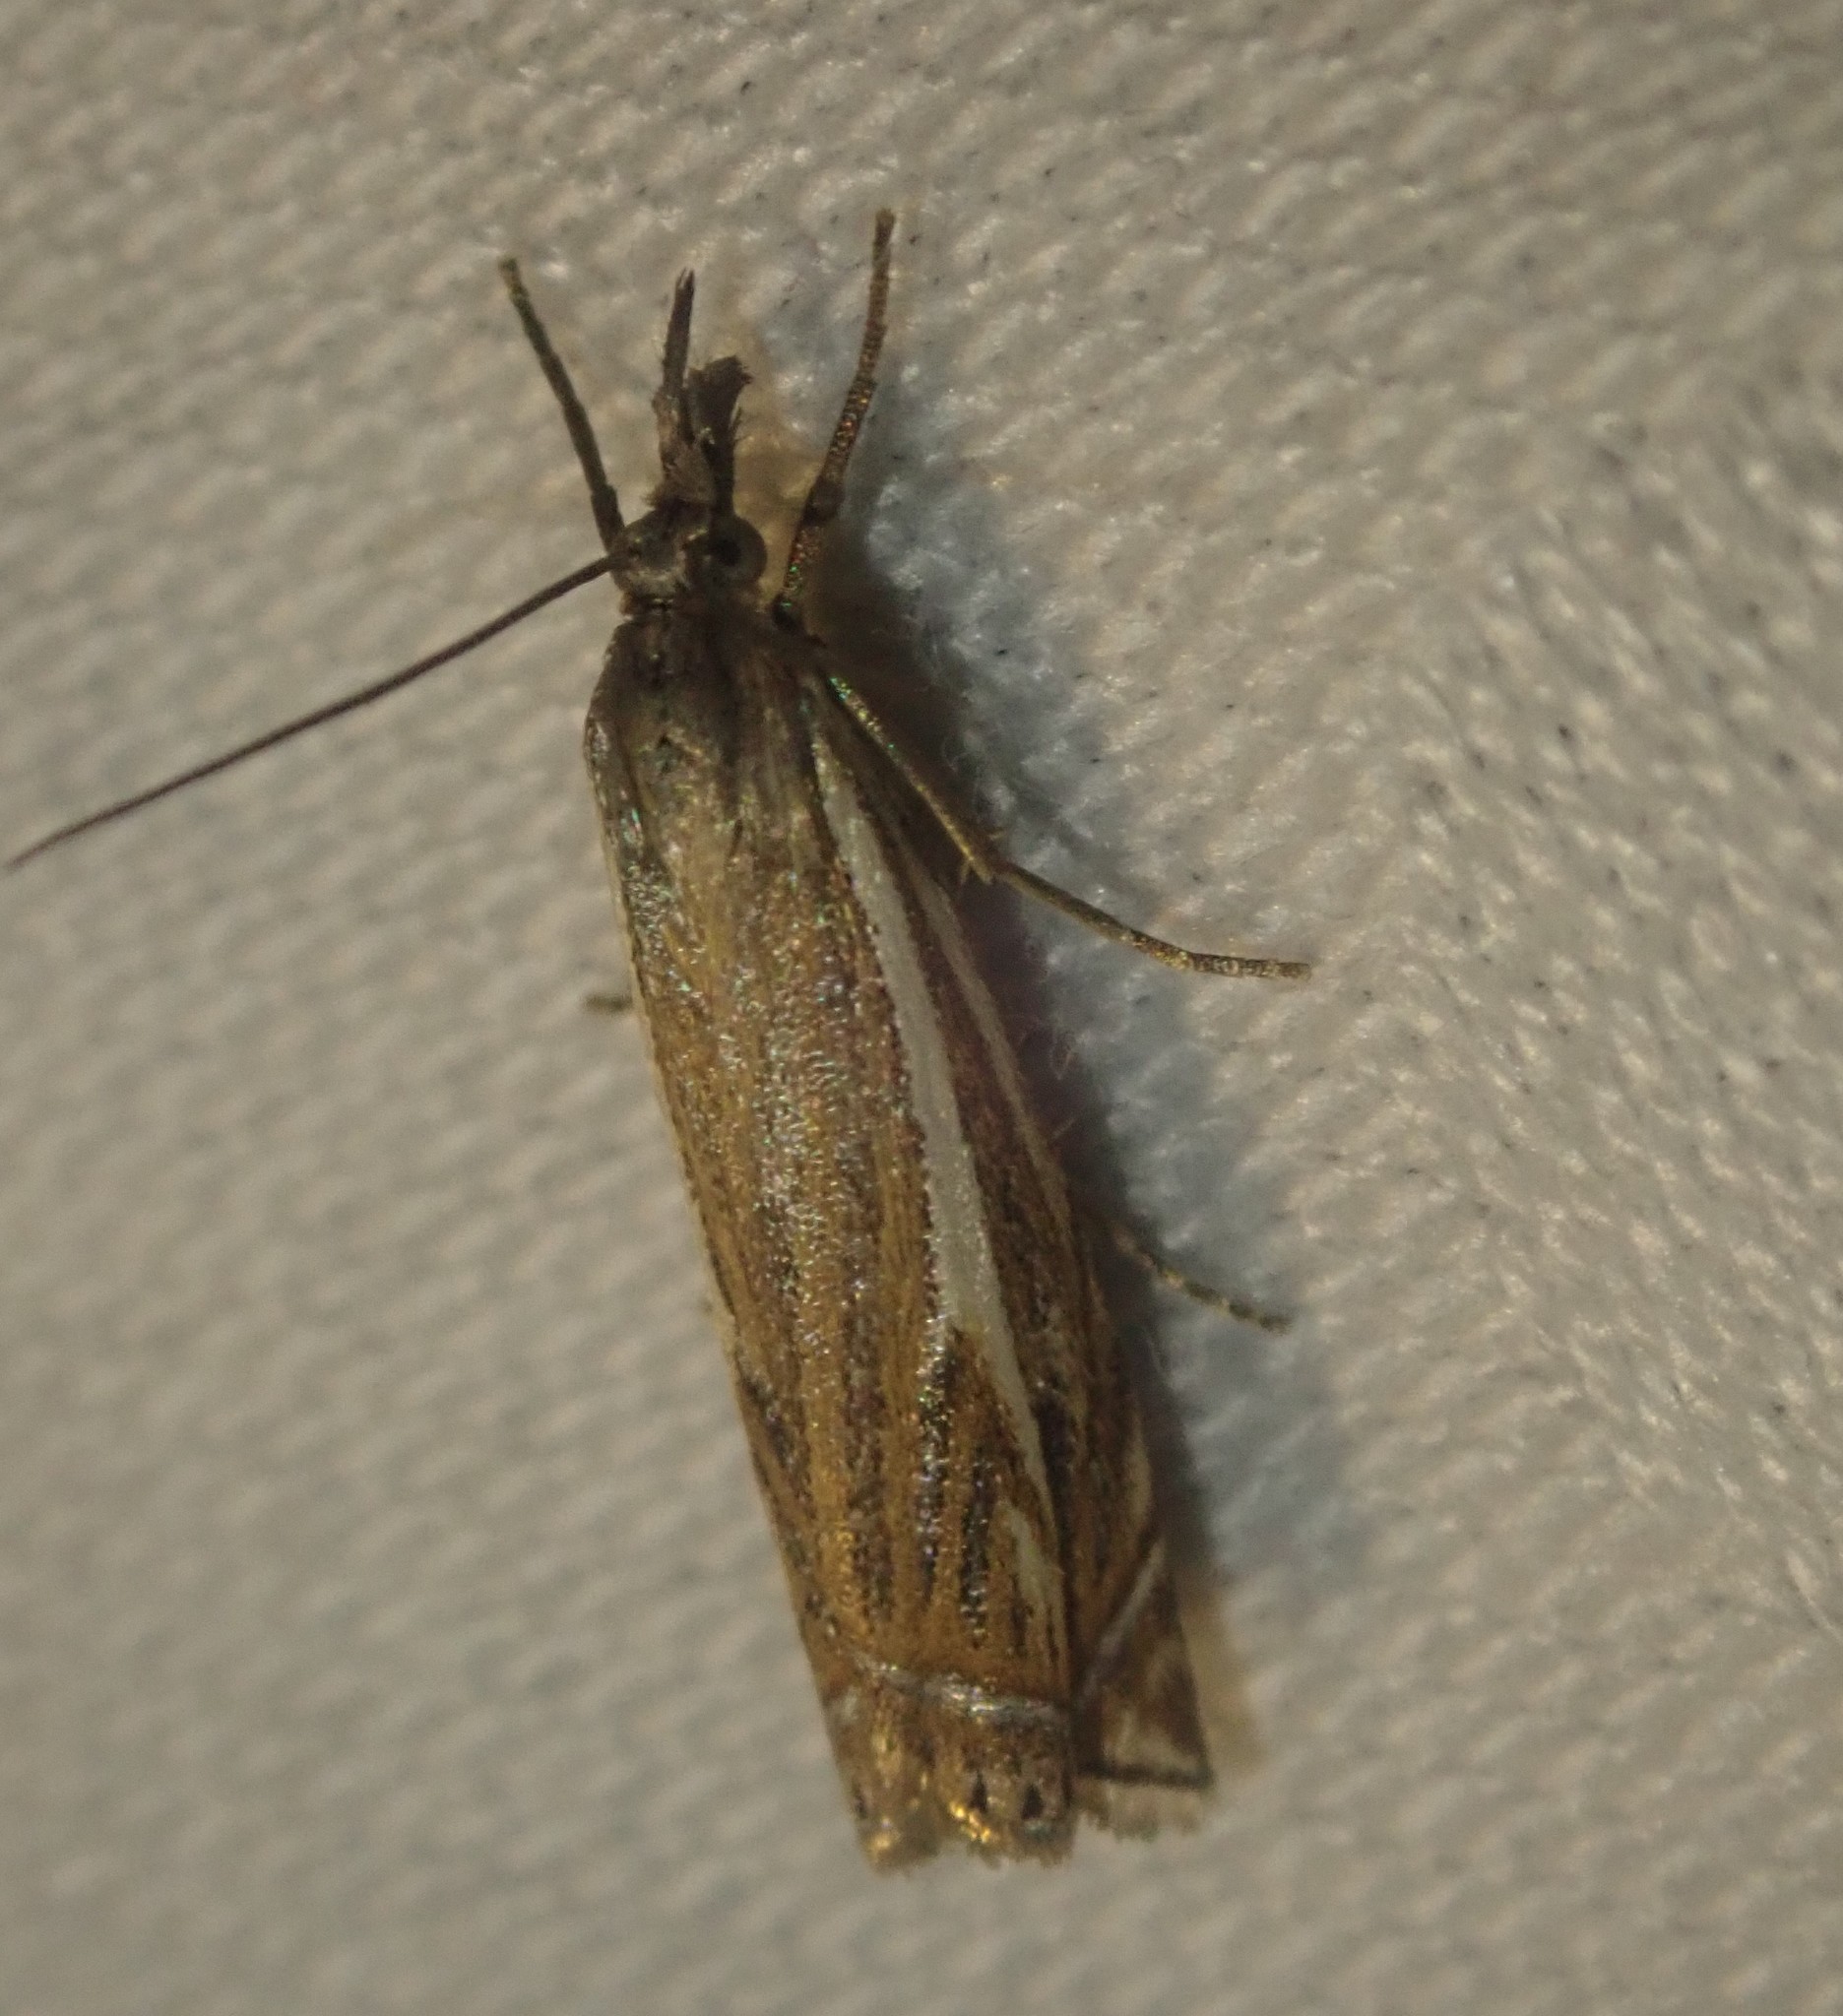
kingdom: Animalia
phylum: Arthropoda
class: Insecta
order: Lepidoptera
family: Crambidae
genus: Crambus
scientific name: Crambus nemorella
